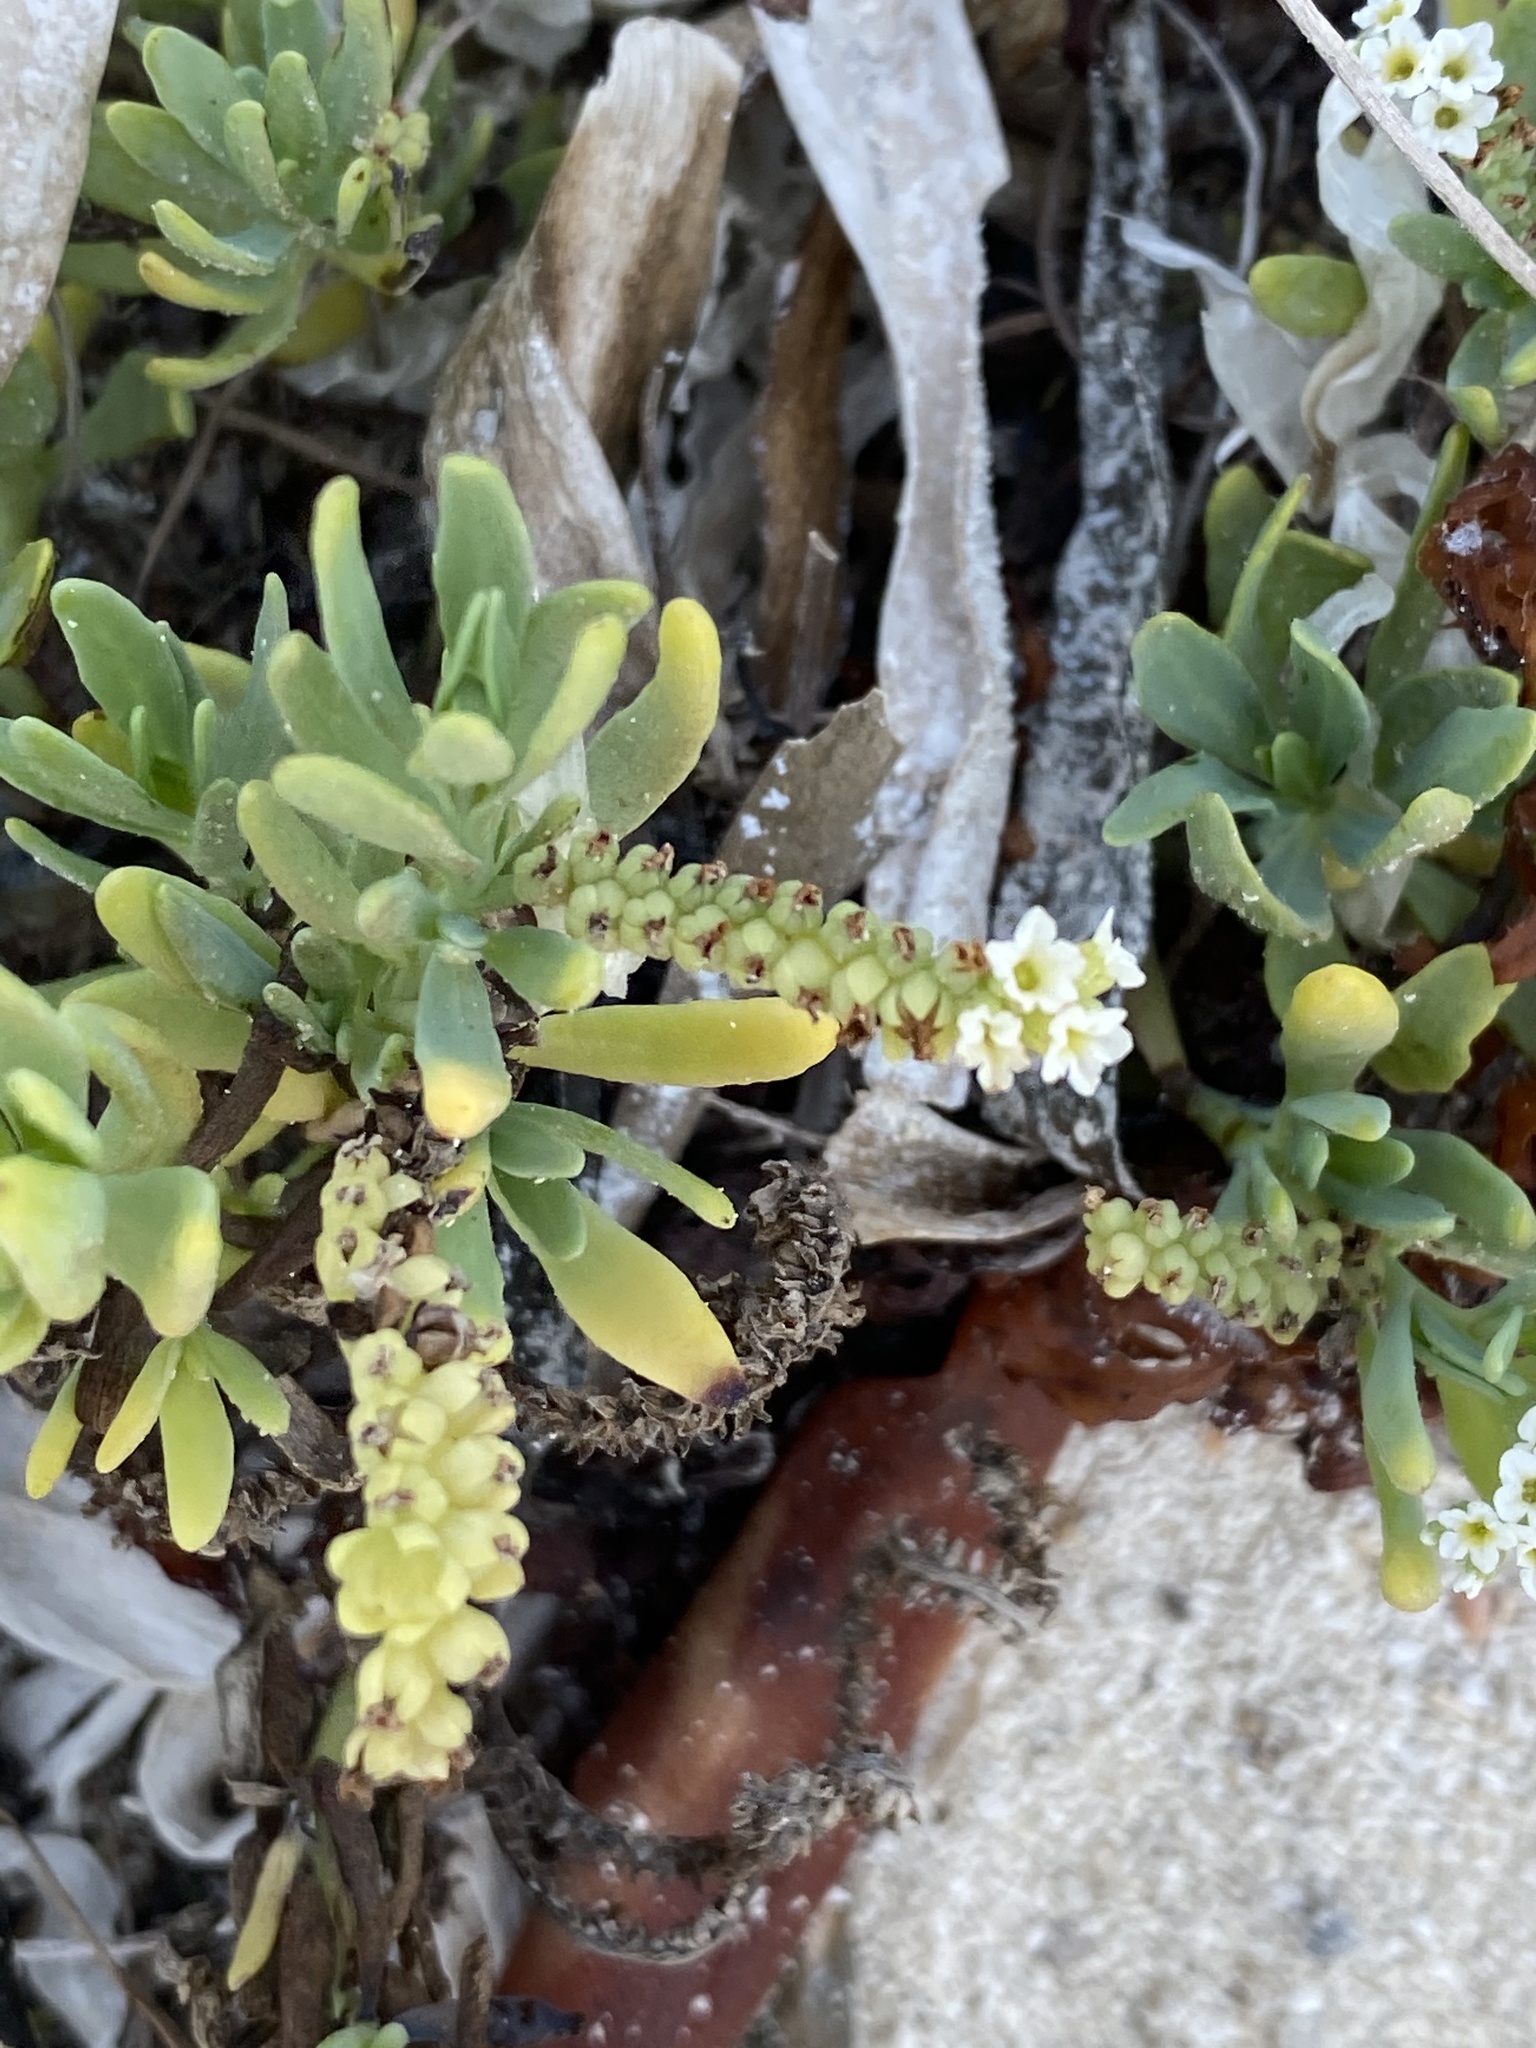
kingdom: Plantae
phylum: Tracheophyta
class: Magnoliopsida
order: Boraginales
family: Heliotropiaceae
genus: Heliotropium
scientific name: Heliotropium curassavicum
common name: Seaside heliotrope
